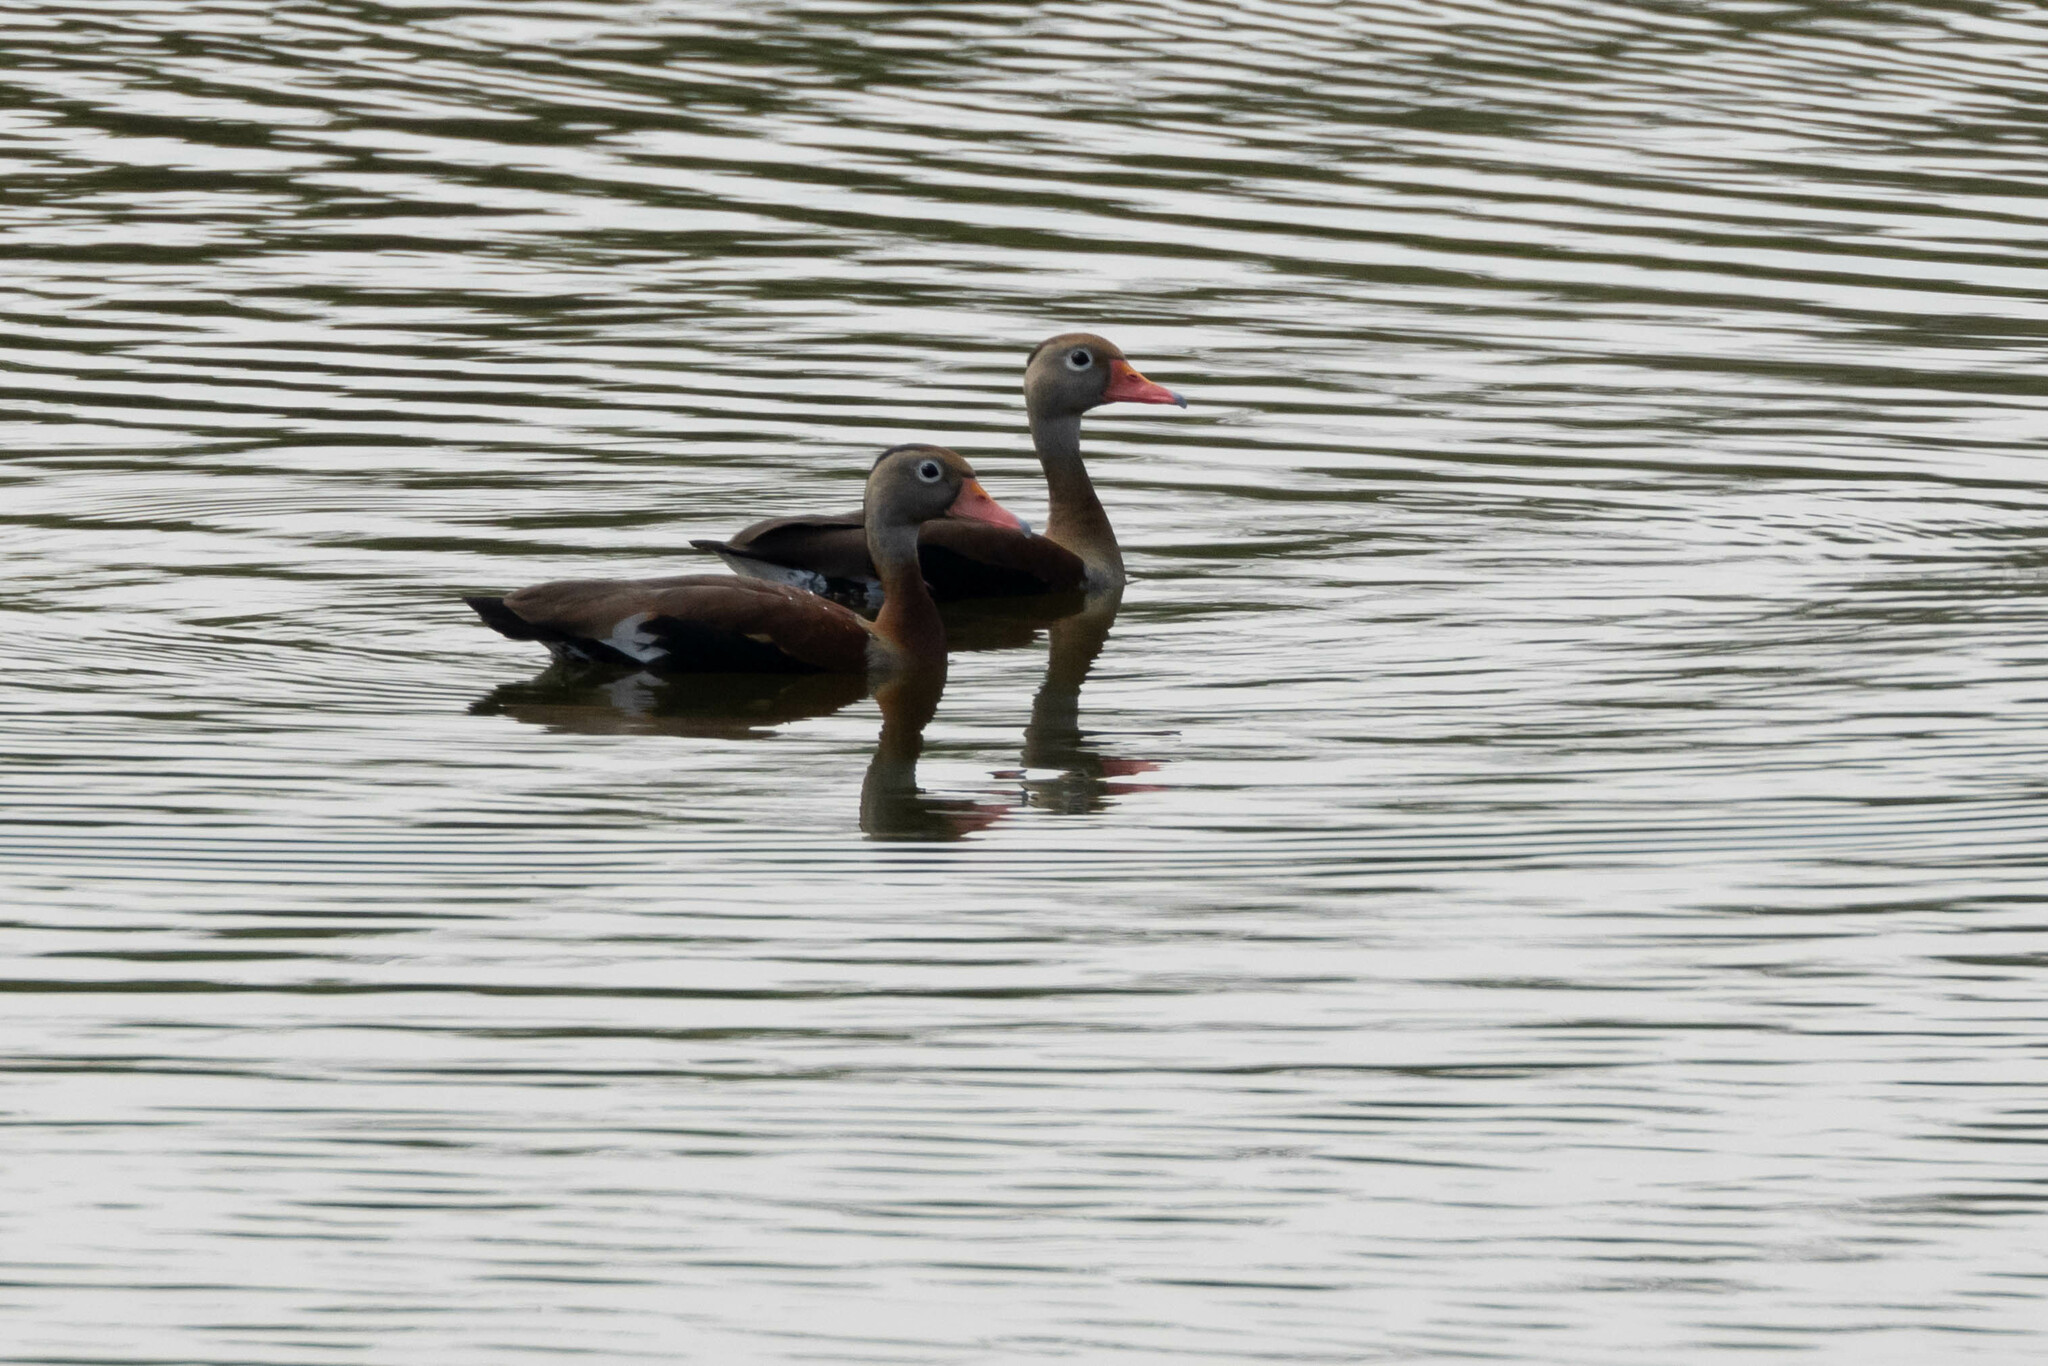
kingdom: Animalia
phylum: Chordata
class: Aves
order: Anseriformes
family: Anatidae
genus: Dendrocygna
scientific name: Dendrocygna autumnalis
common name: Black-bellied whistling duck
